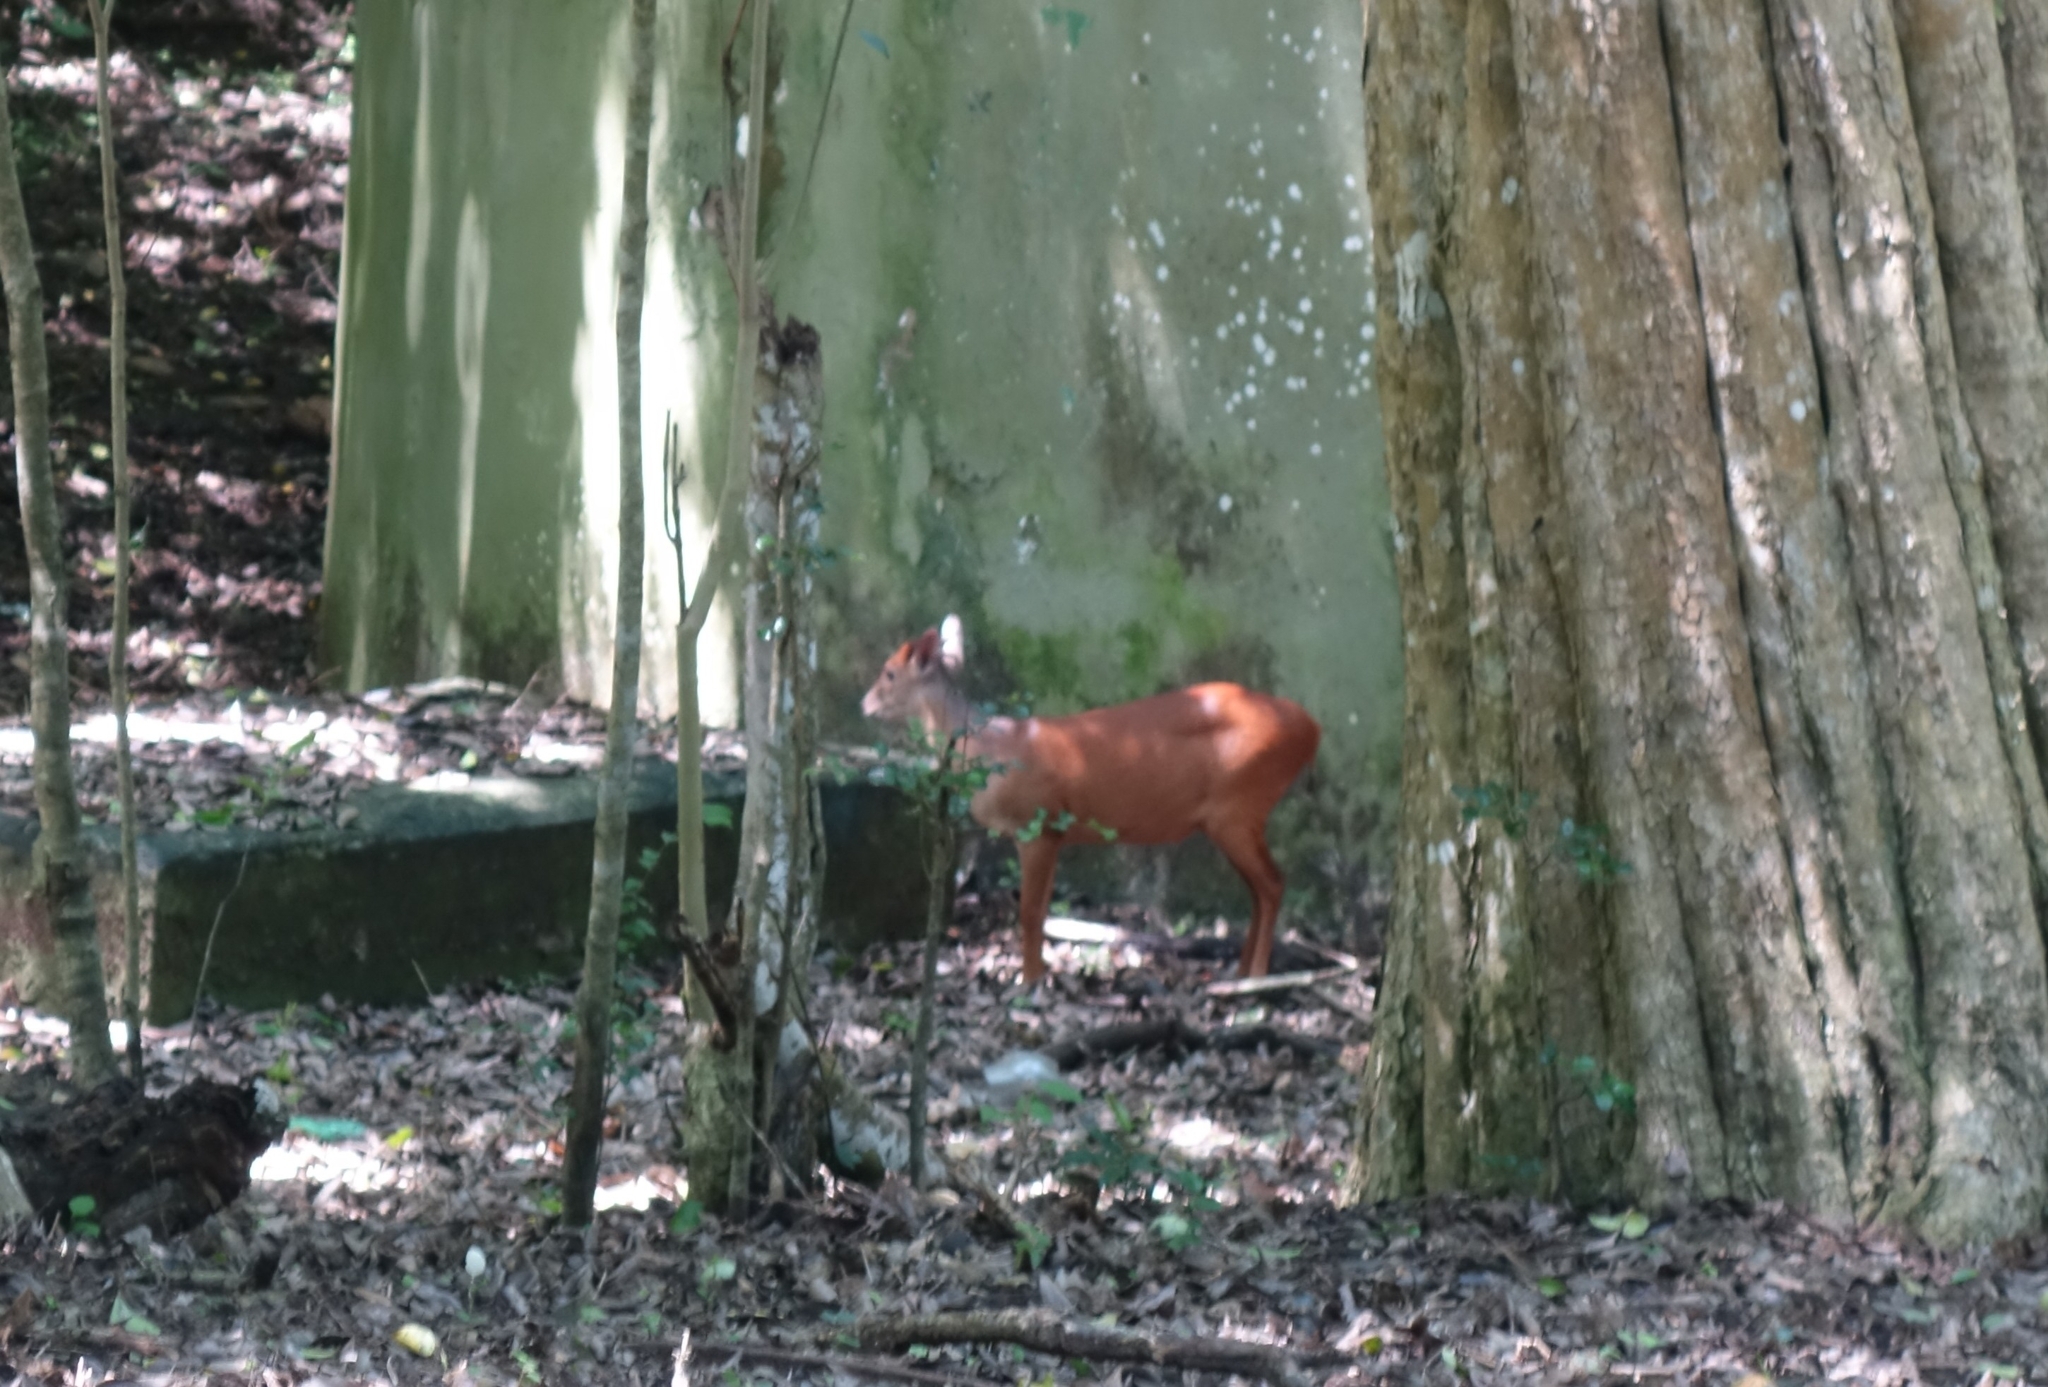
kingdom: Animalia
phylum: Chordata
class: Mammalia
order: Artiodactyla
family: Bovidae
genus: Cephalophus
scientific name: Cephalophus natalensis
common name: Red duiker
